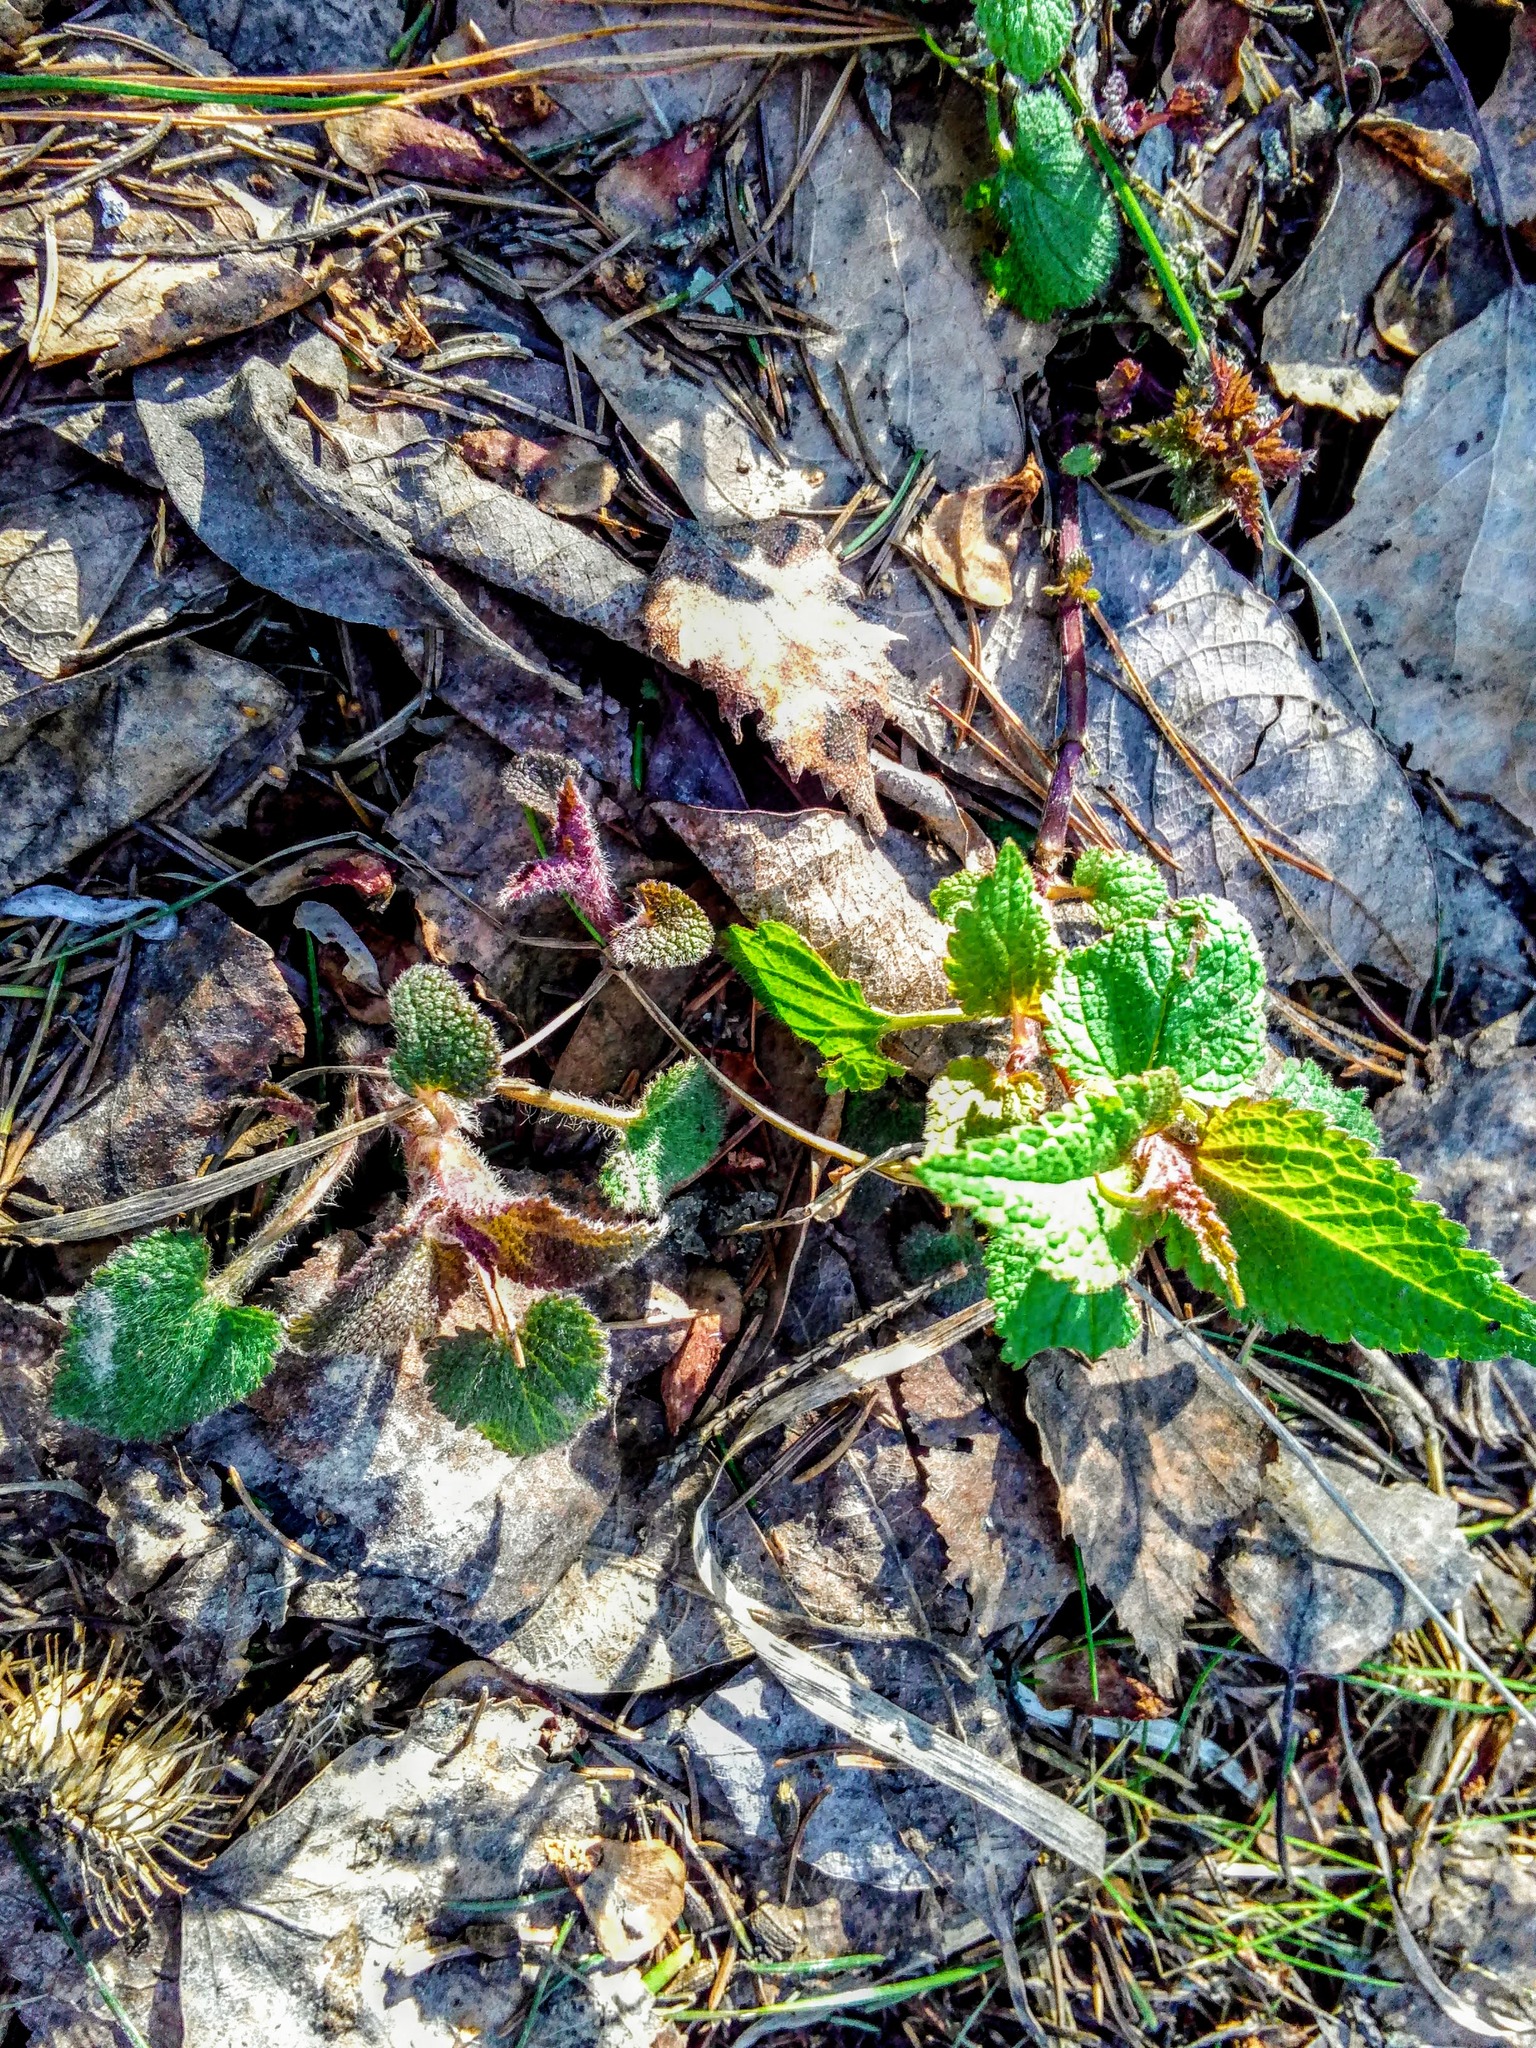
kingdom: Plantae
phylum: Tracheophyta
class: Magnoliopsida
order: Lamiales
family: Lamiaceae
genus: Lamium
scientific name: Lamium album
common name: White dead-nettle
